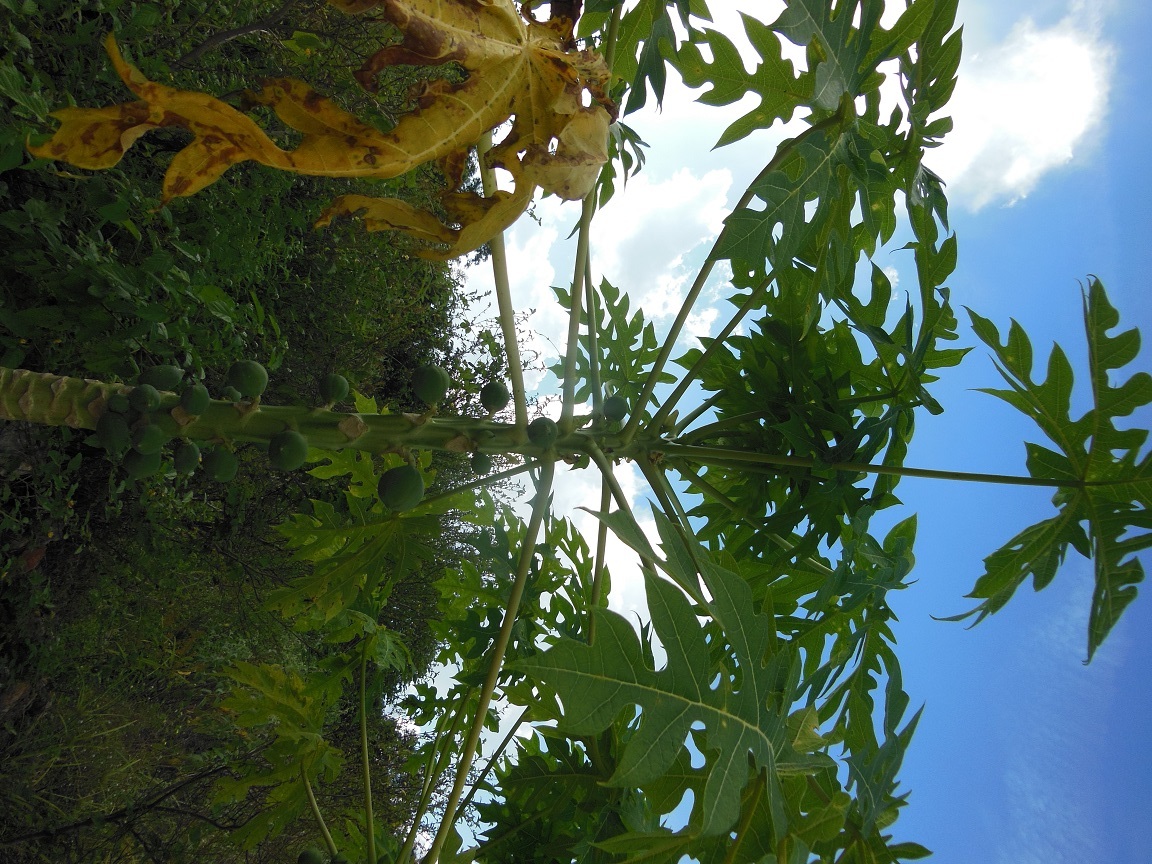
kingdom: Plantae
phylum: Tracheophyta
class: Magnoliopsida
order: Brassicales
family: Caricaceae
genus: Carica
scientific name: Carica papaya
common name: Papaya
